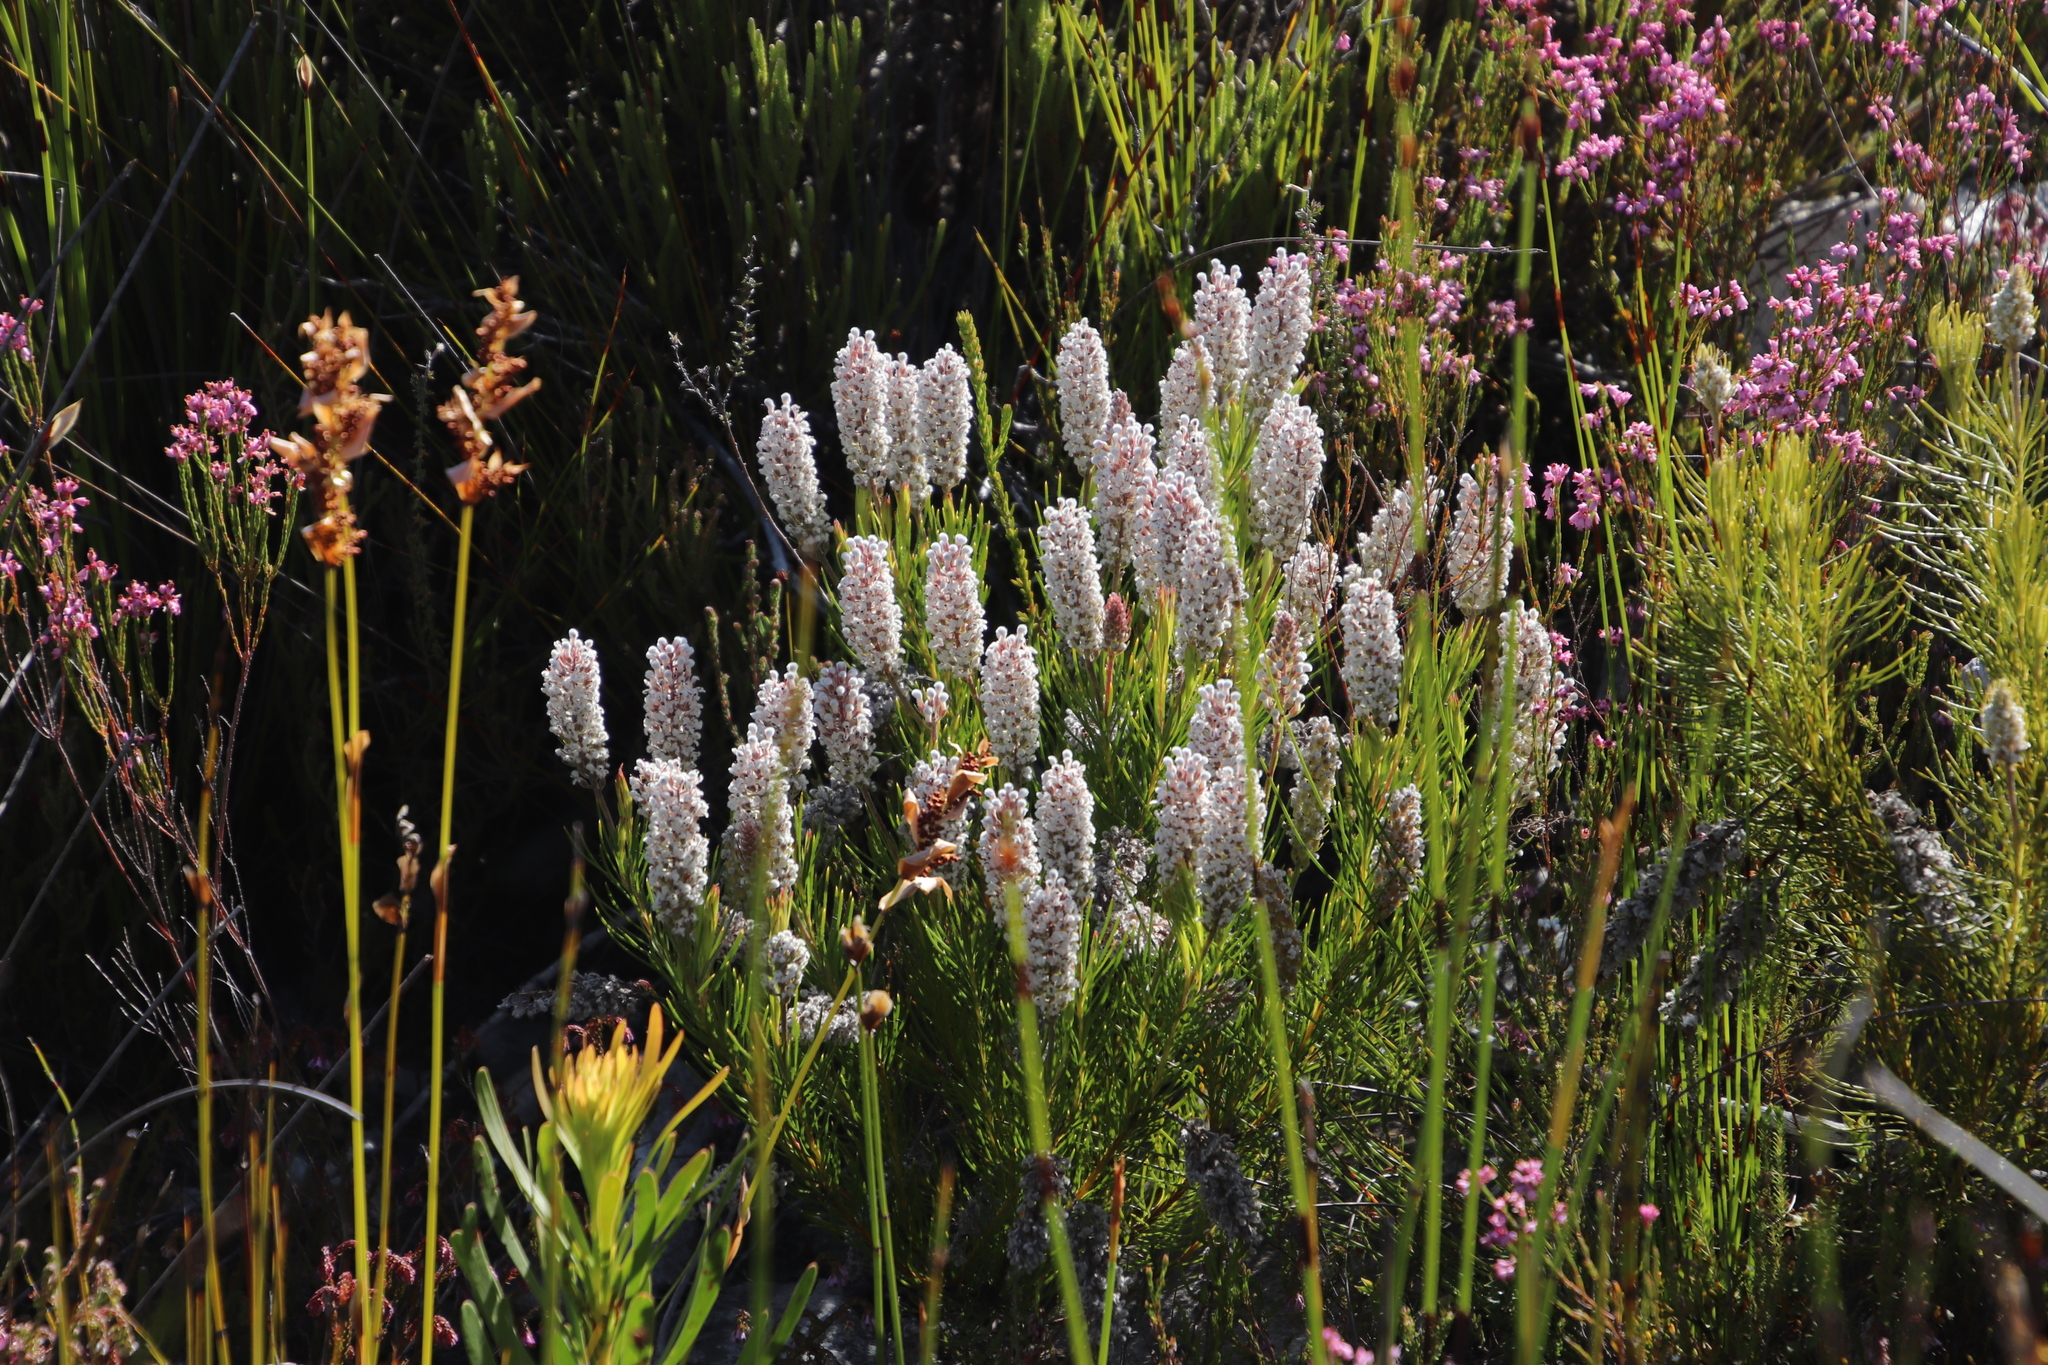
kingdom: Plantae
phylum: Tracheophyta
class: Magnoliopsida
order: Proteales
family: Proteaceae
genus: Spatalla
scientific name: Spatalla curvifolia
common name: White-stalked spoon
